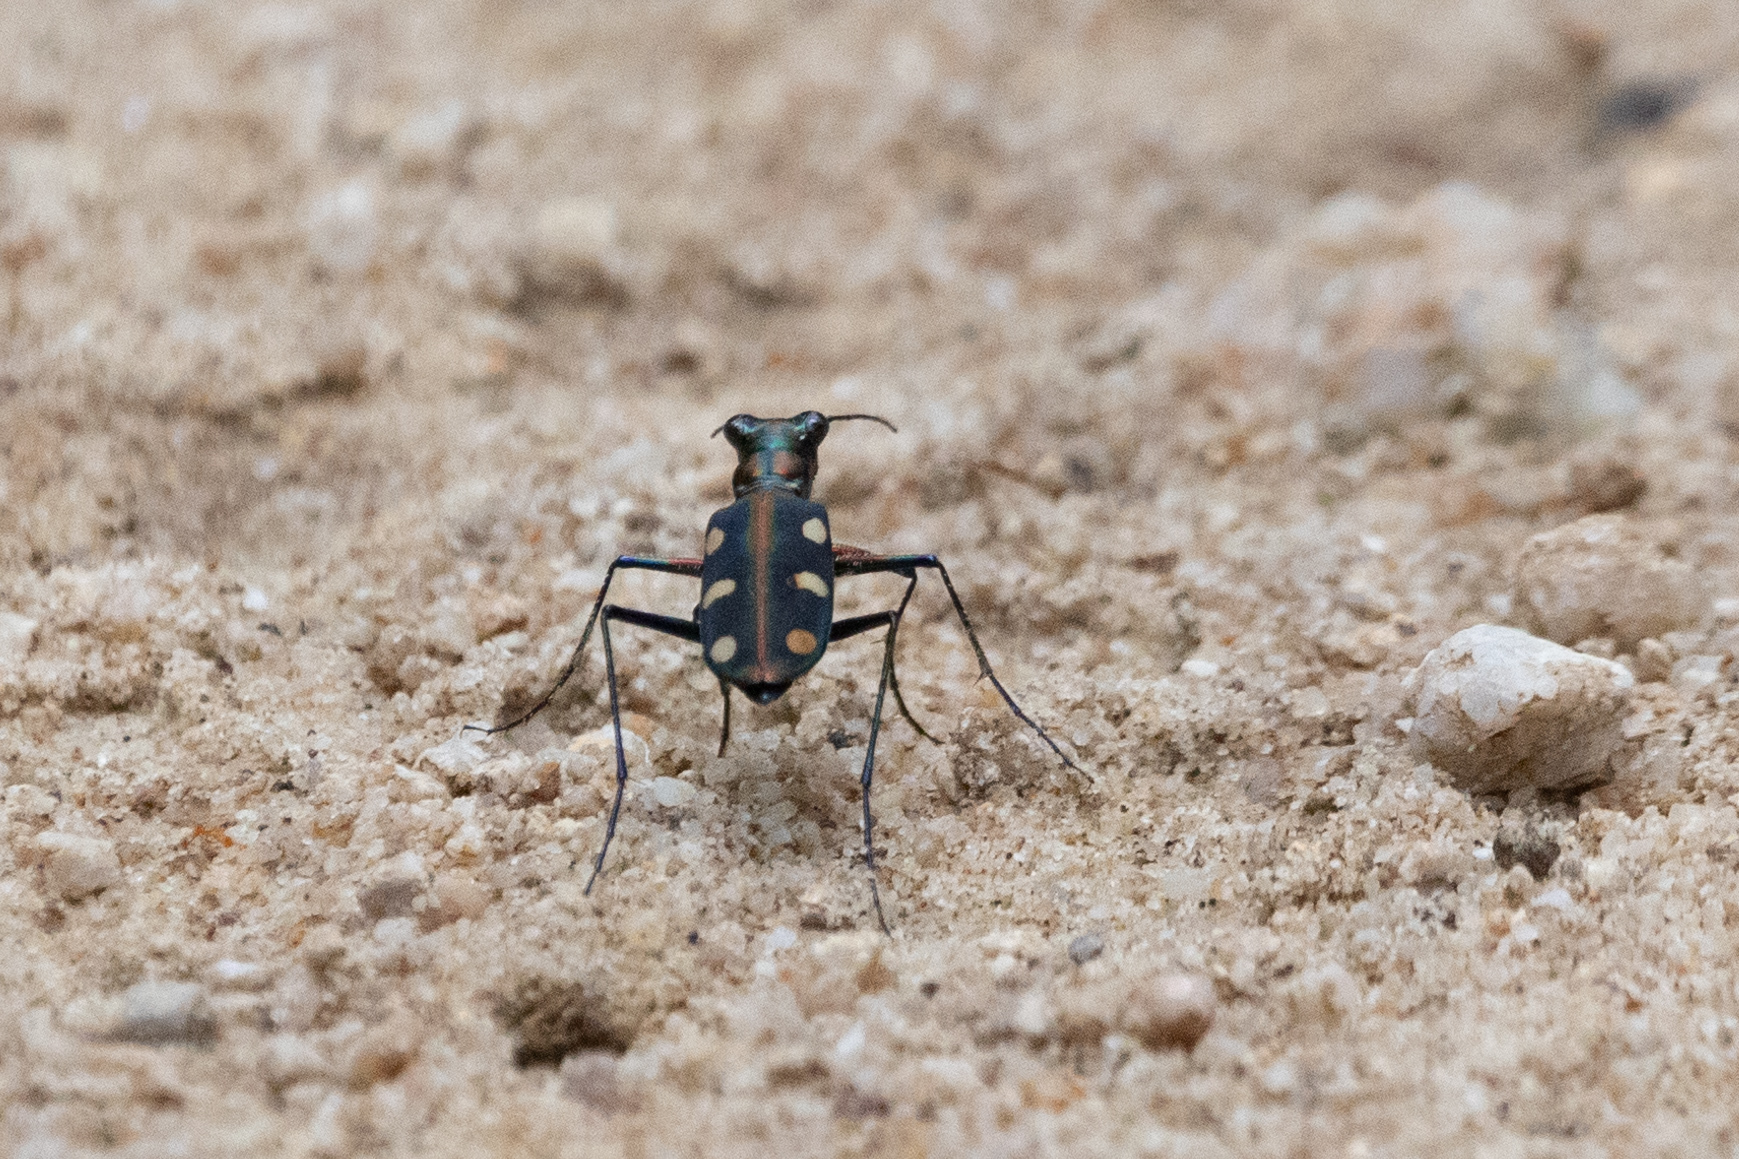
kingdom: Animalia
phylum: Arthropoda
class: Insecta
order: Coleoptera
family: Carabidae
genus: Cicindela
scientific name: Cicindela juxtata
